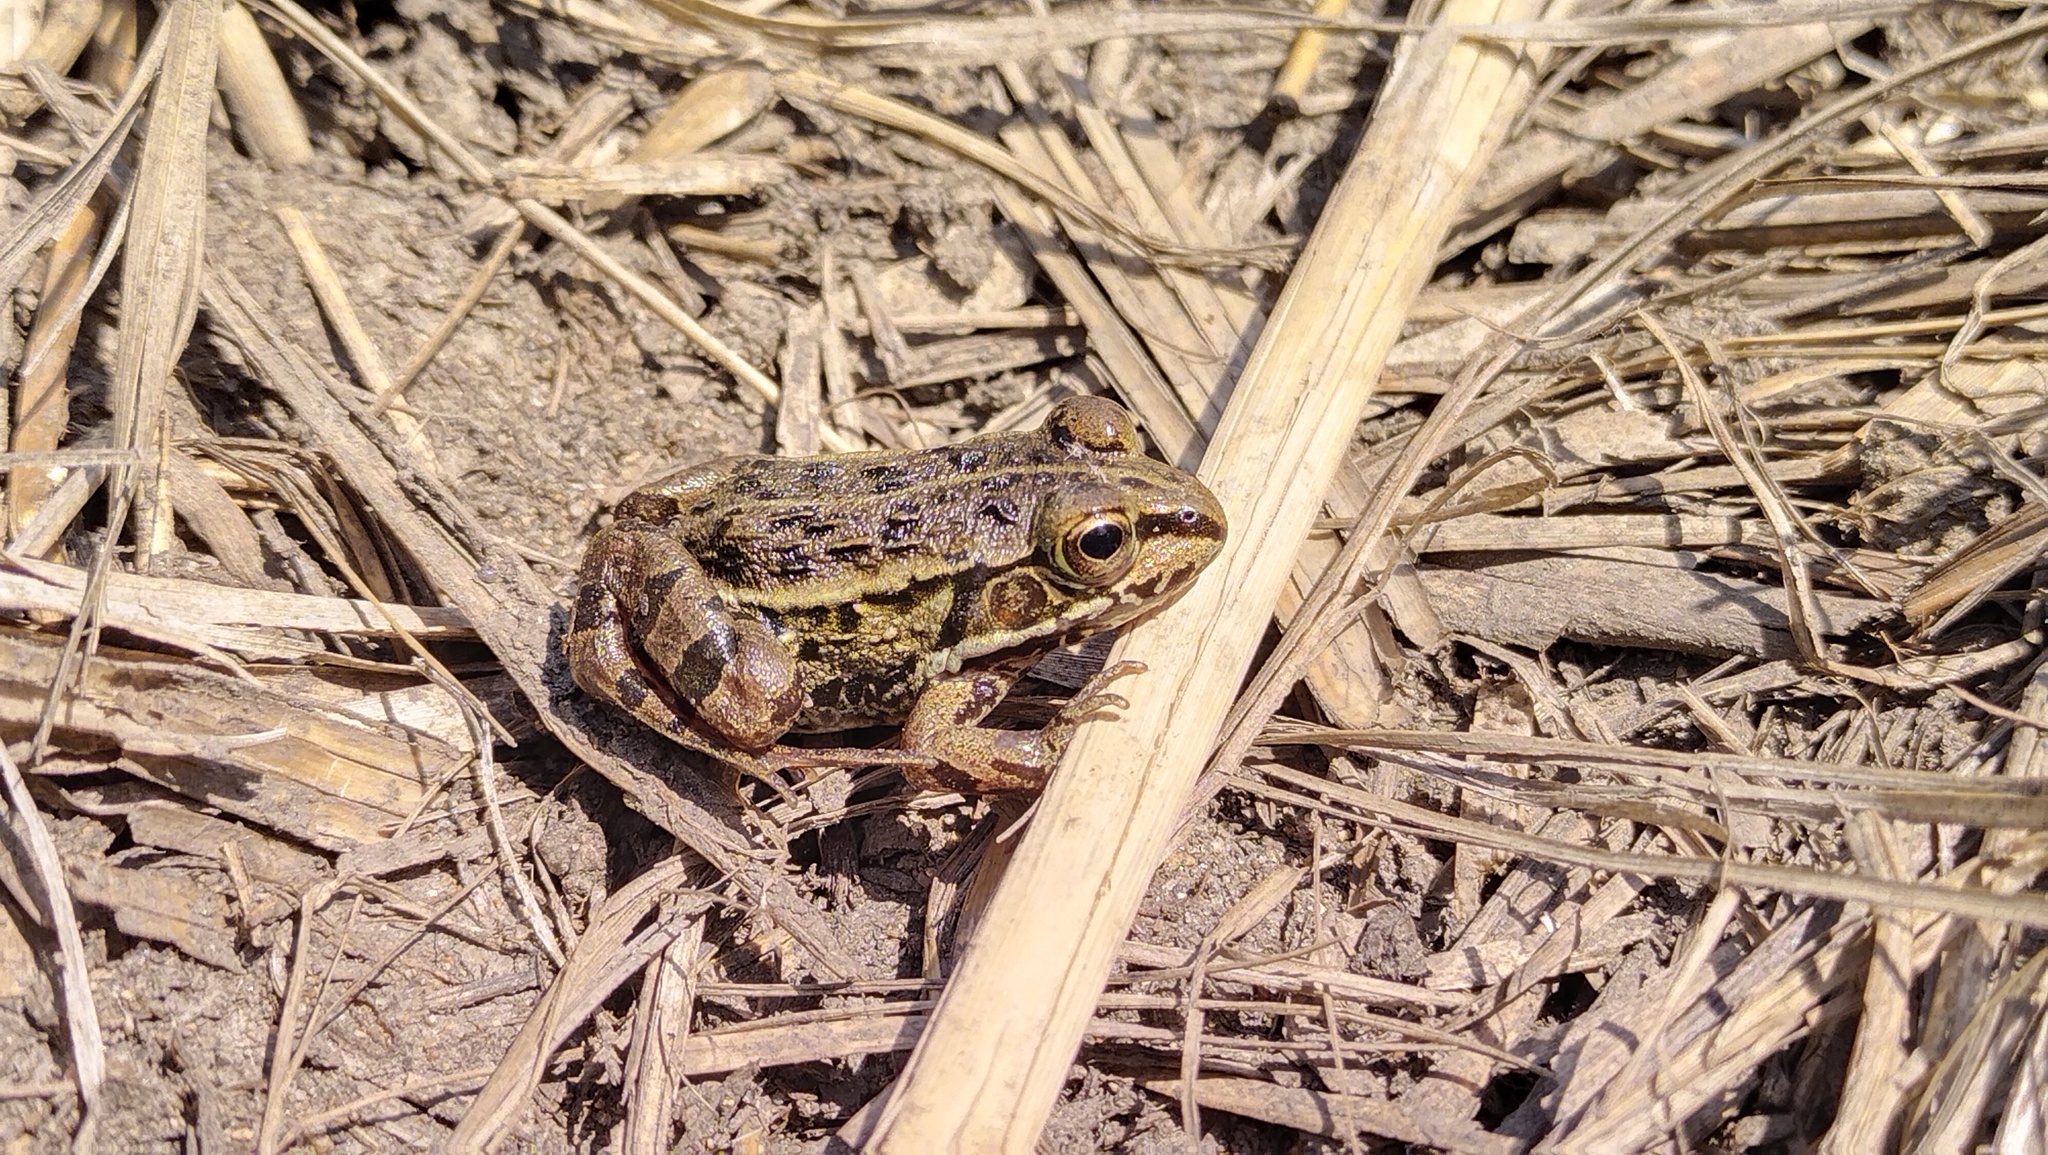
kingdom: Animalia
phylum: Chordata
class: Amphibia
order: Anura
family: Ranidae
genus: Pelophylax
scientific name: Pelophylax nigromaculatus
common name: Black-spotted pond frog
